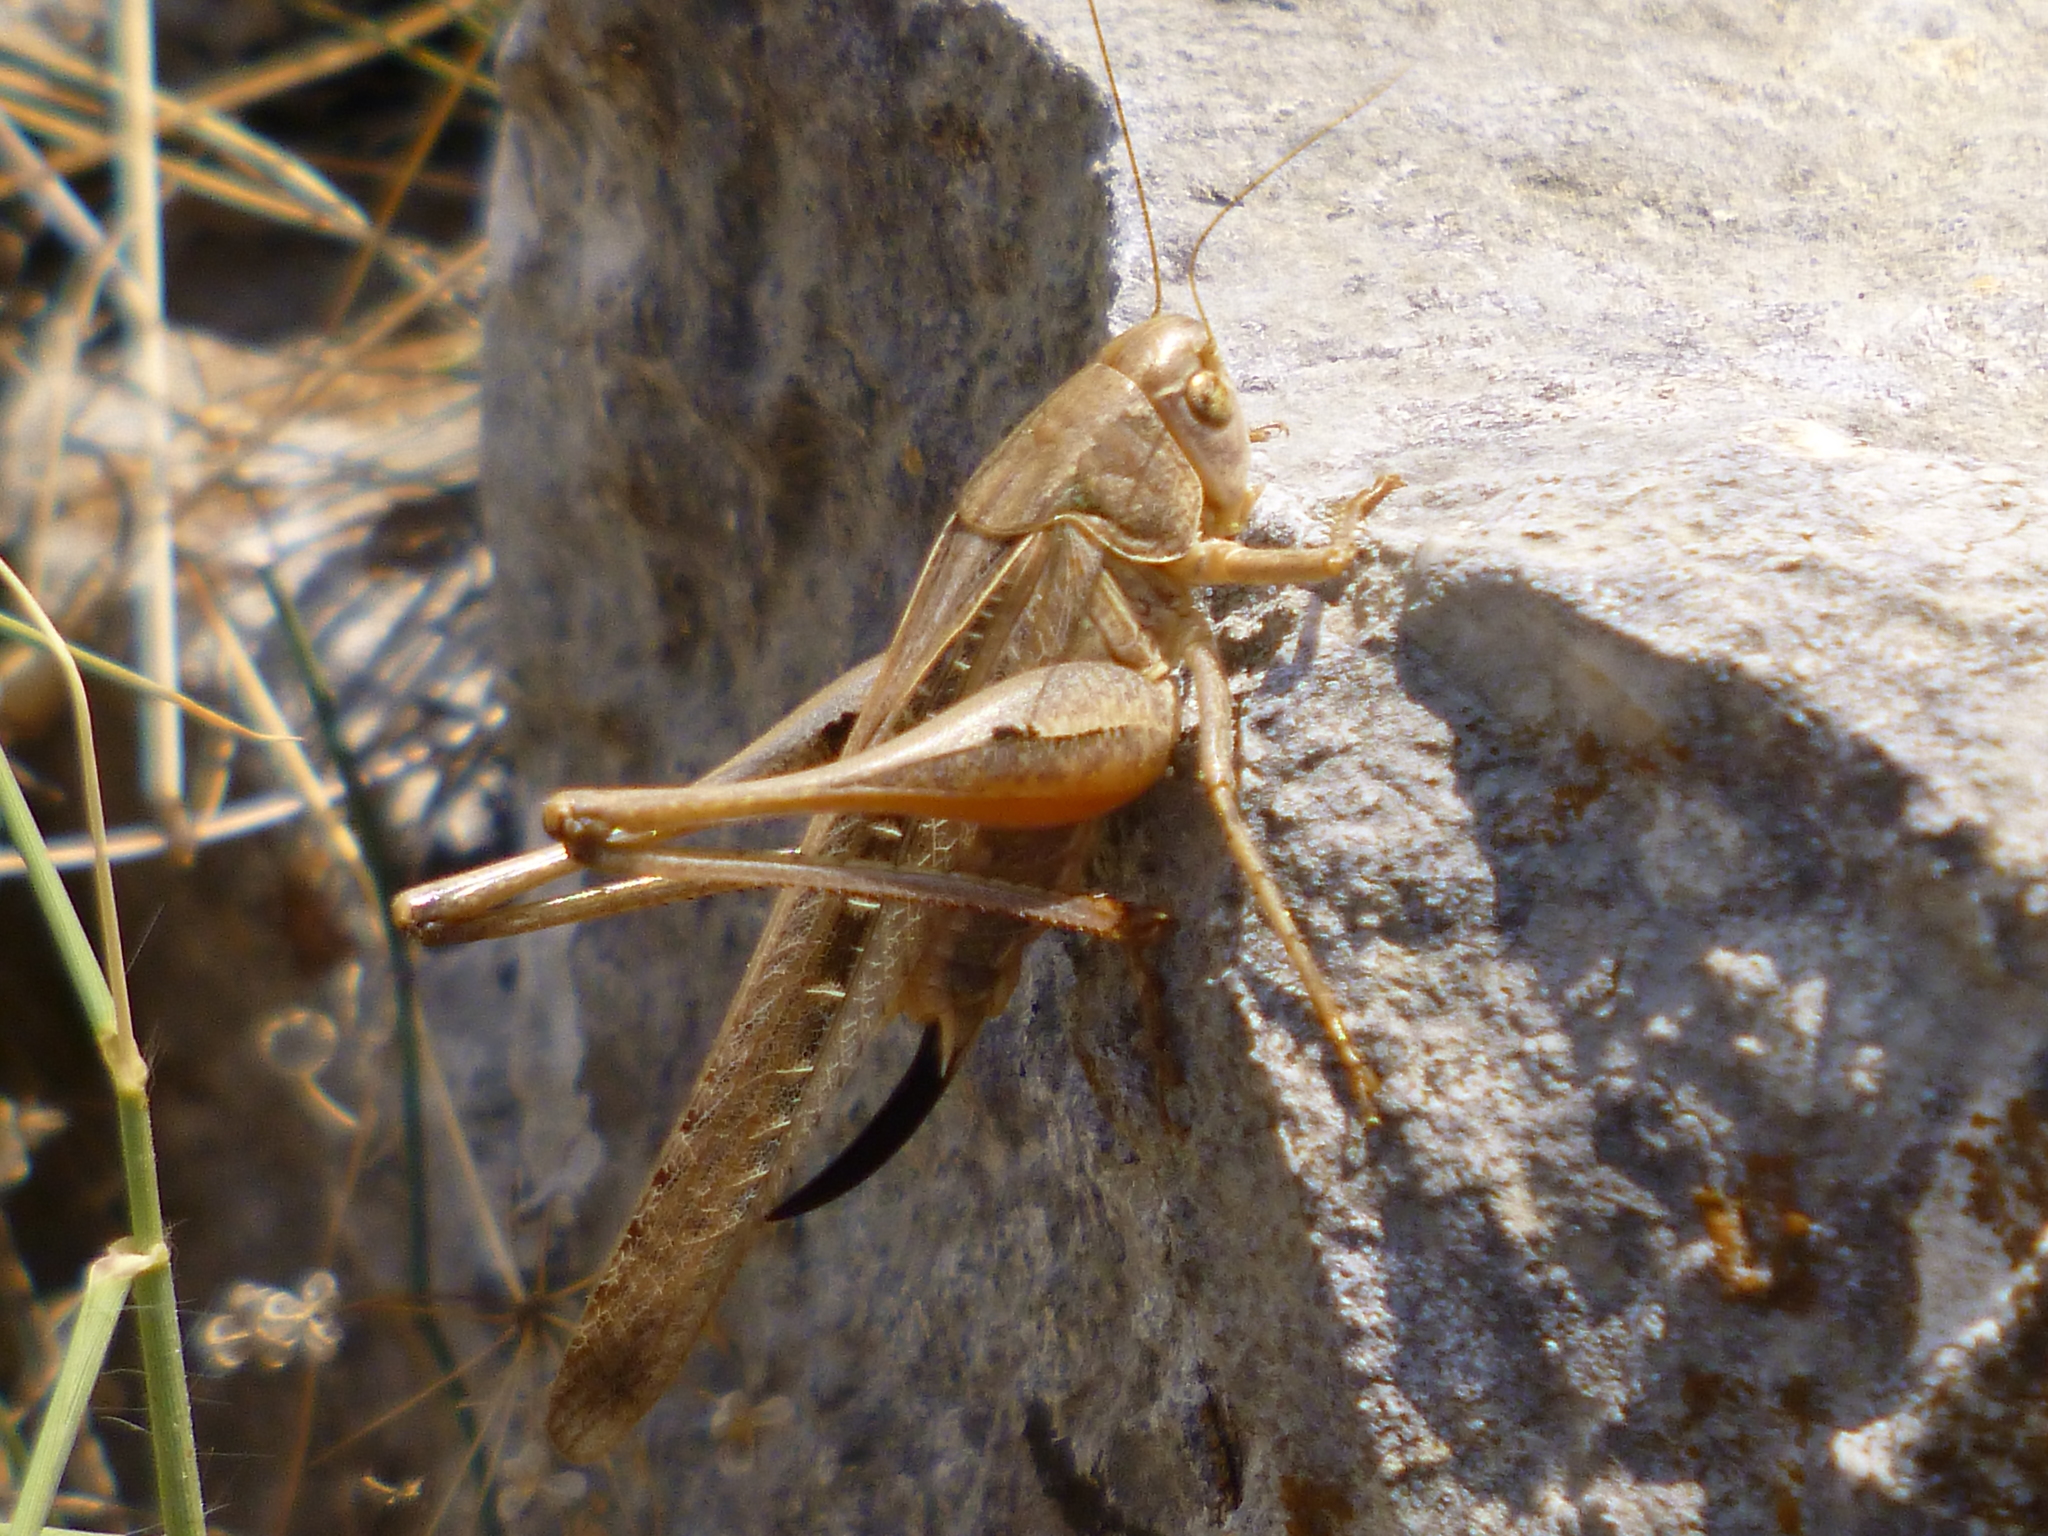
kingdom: Animalia
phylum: Arthropoda
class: Insecta
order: Orthoptera
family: Tettigoniidae
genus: Platycleis
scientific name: Platycleis intermedia
